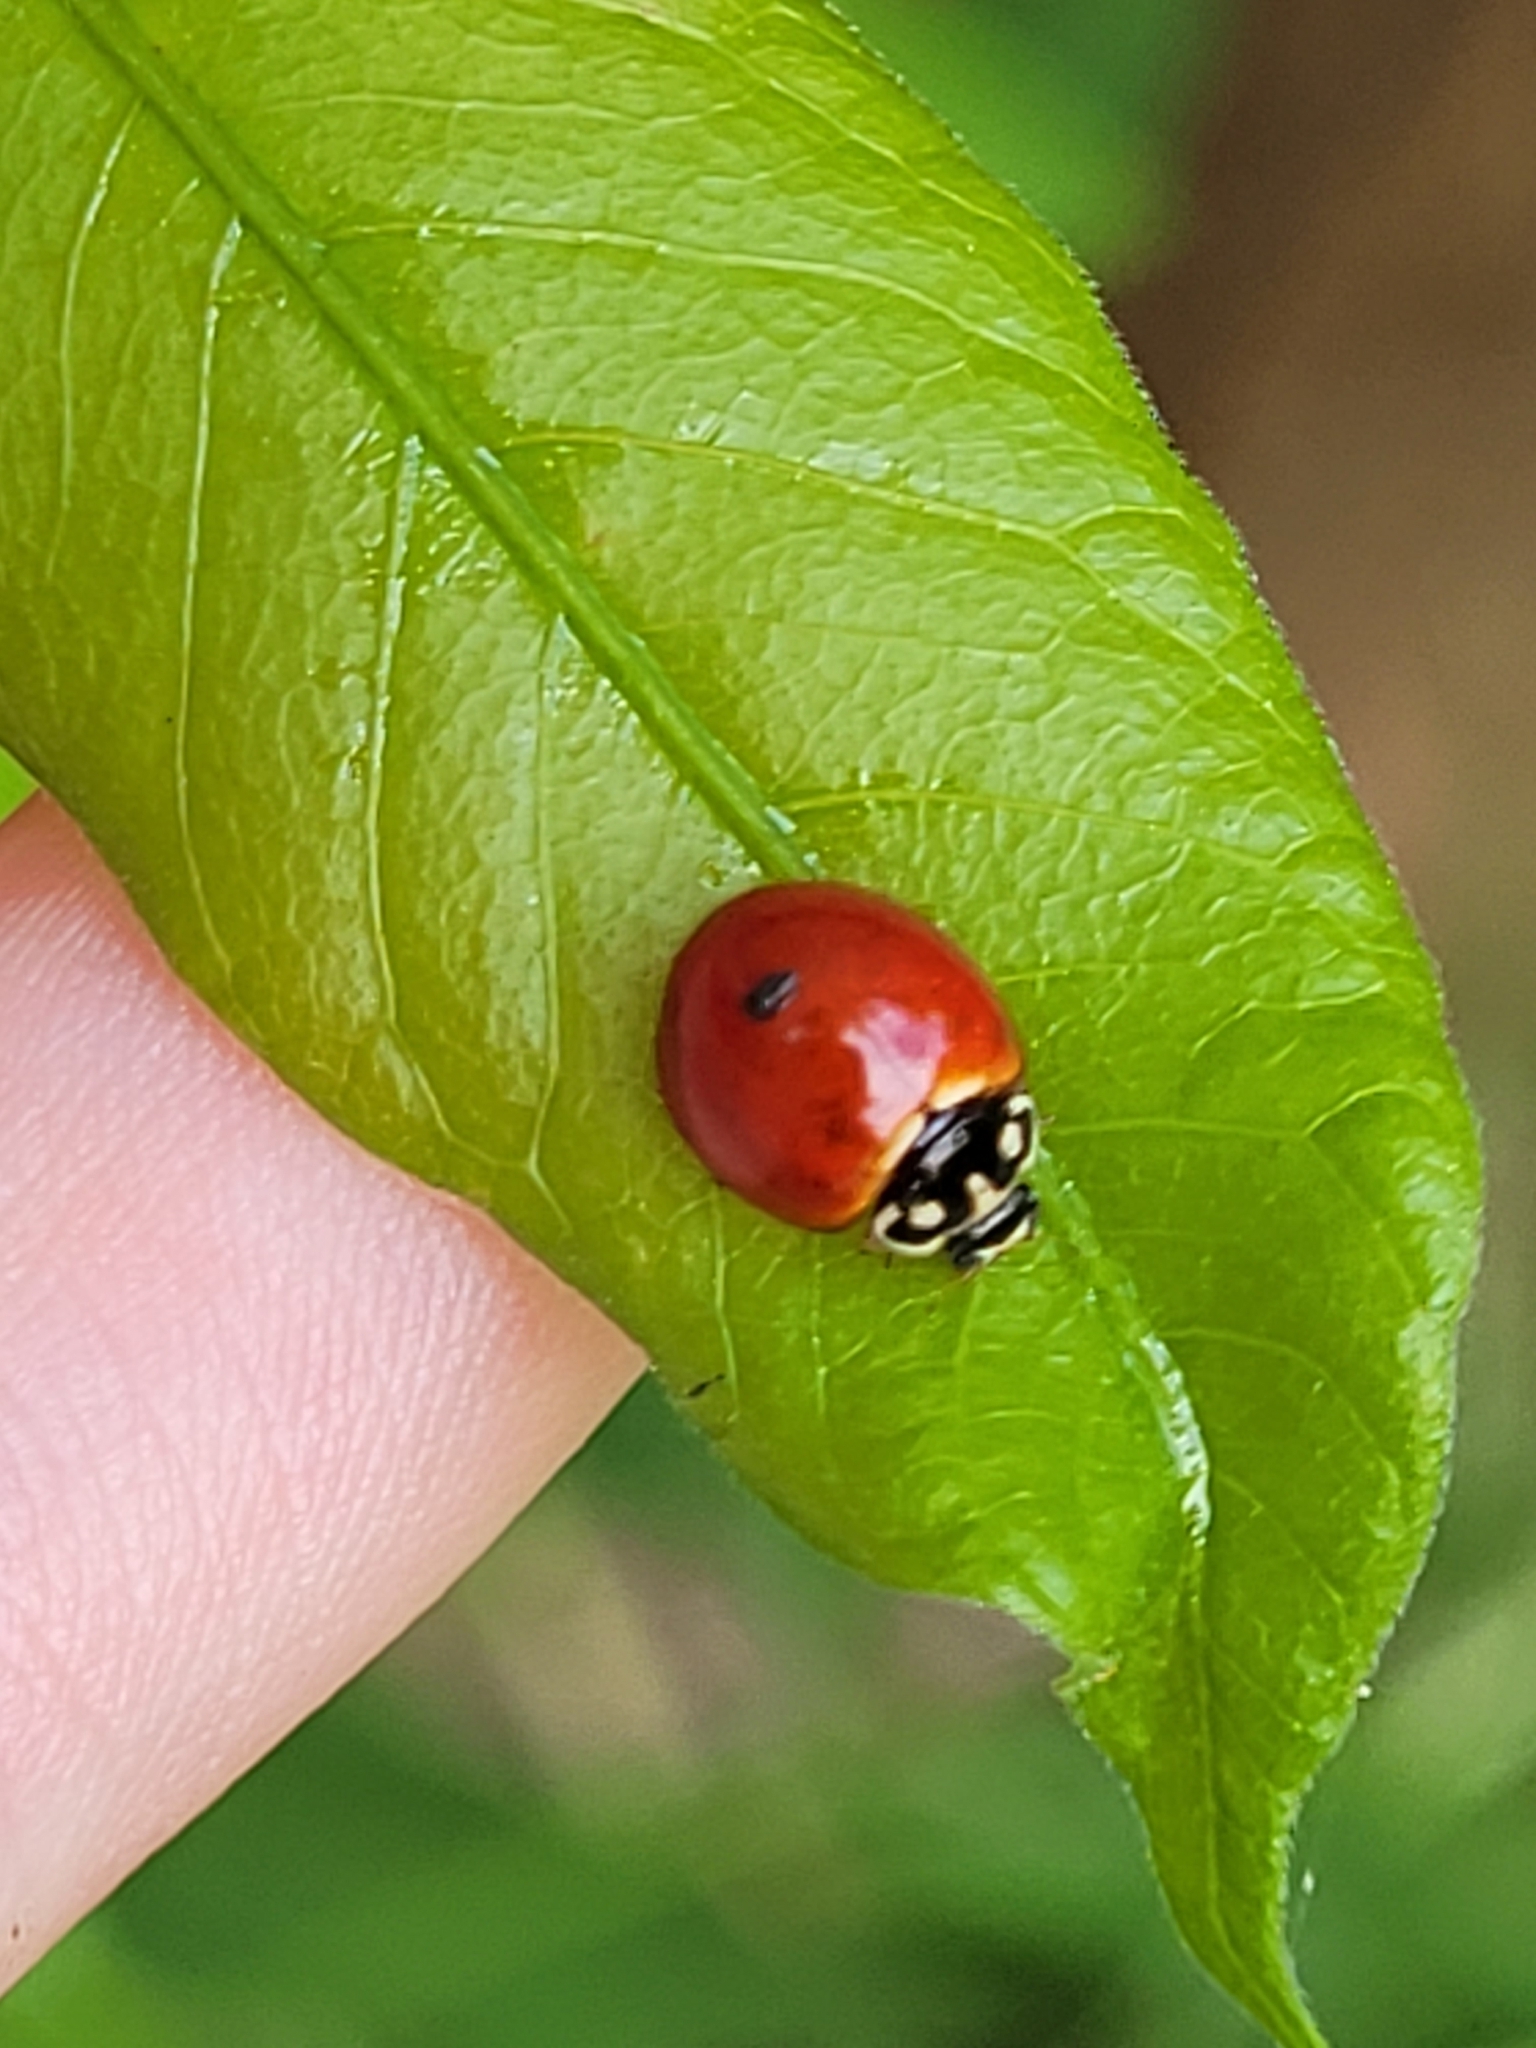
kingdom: Animalia
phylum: Arthropoda
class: Insecta
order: Coleoptera
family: Coccinellidae
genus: Cycloneda
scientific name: Cycloneda sanguinea
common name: Ladybird beetle
